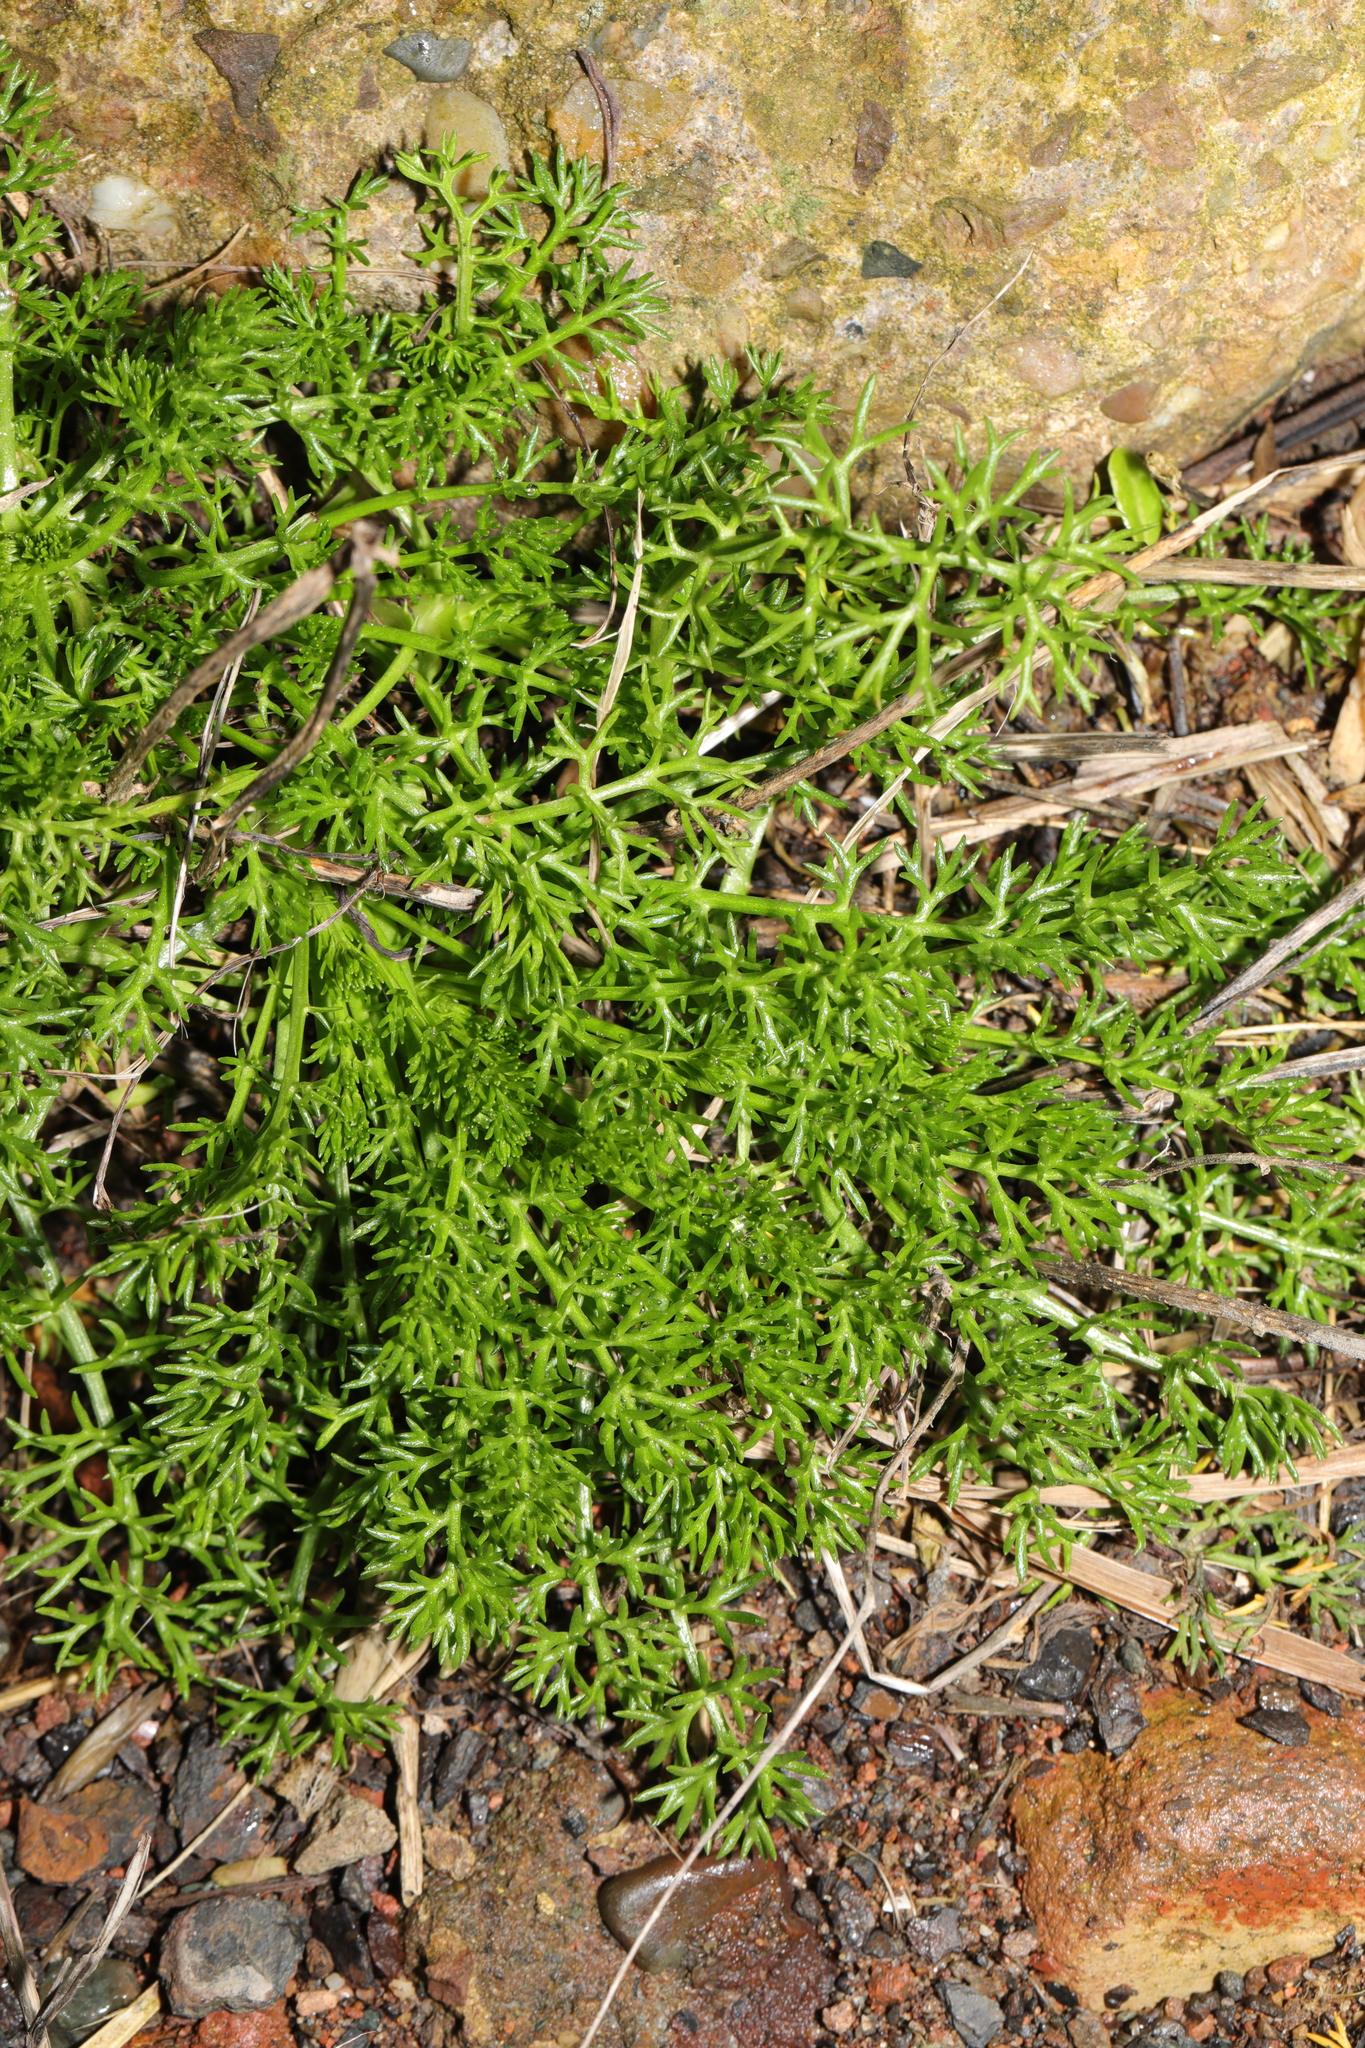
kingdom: Plantae
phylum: Tracheophyta
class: Magnoliopsida
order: Asterales
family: Asteraceae
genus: Tripleurospermum
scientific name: Tripleurospermum maritimum
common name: Sea mayweed
